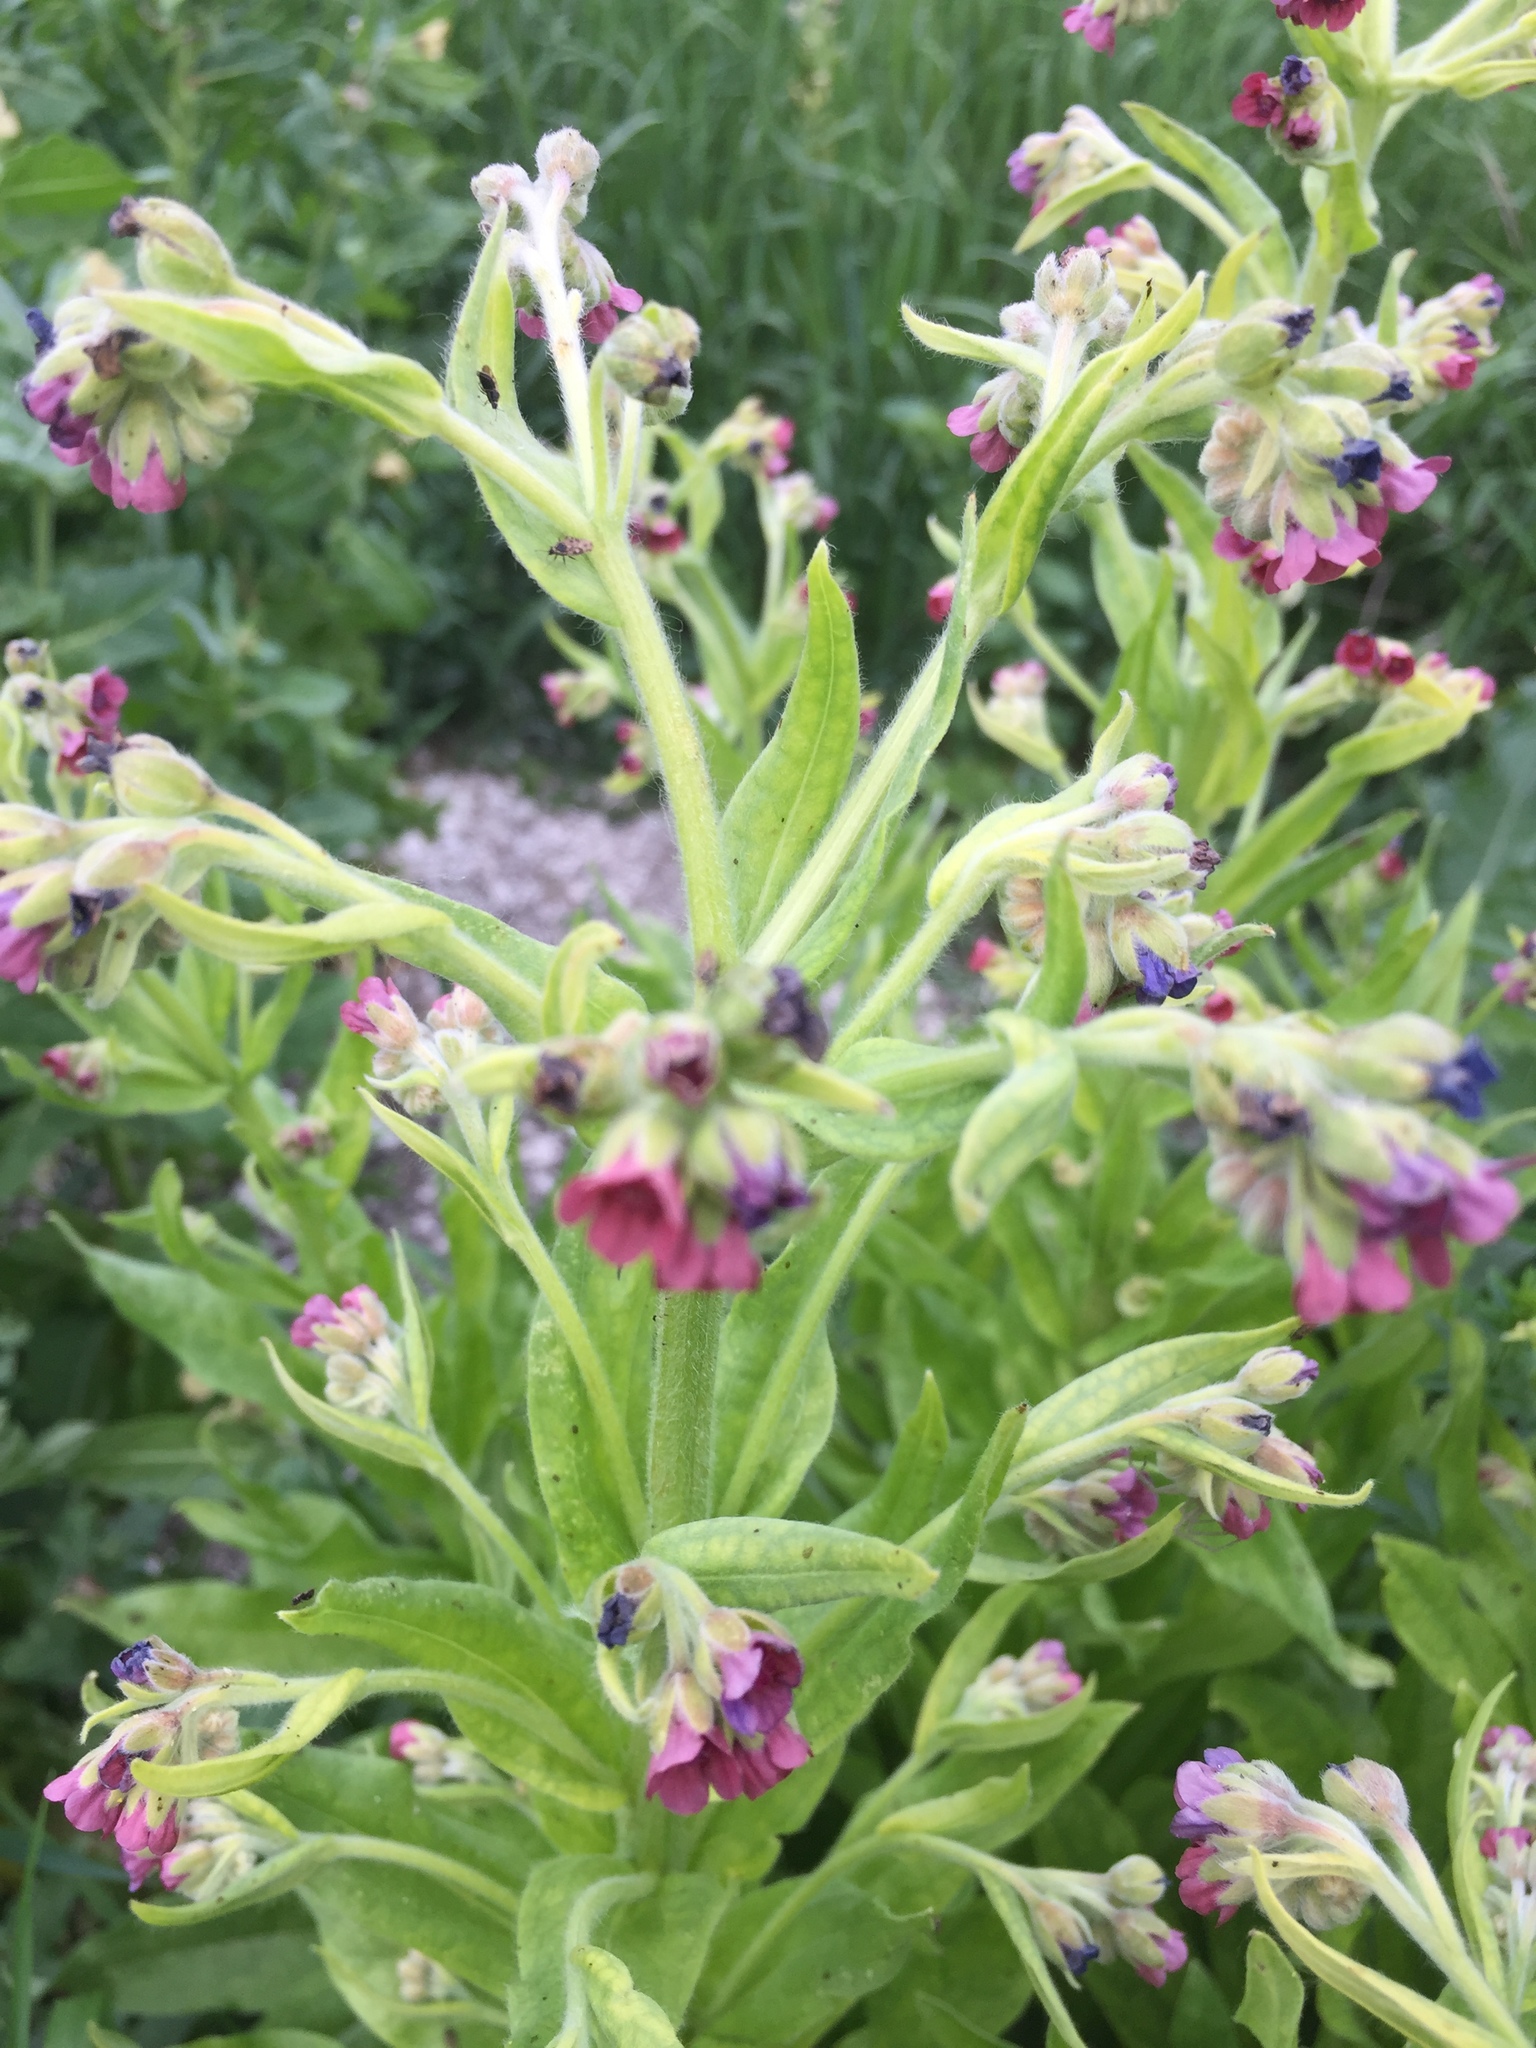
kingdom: Plantae
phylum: Tracheophyta
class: Magnoliopsida
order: Boraginales
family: Boraginaceae
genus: Cynoglossum
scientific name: Cynoglossum officinale
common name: Hound's-tongue
